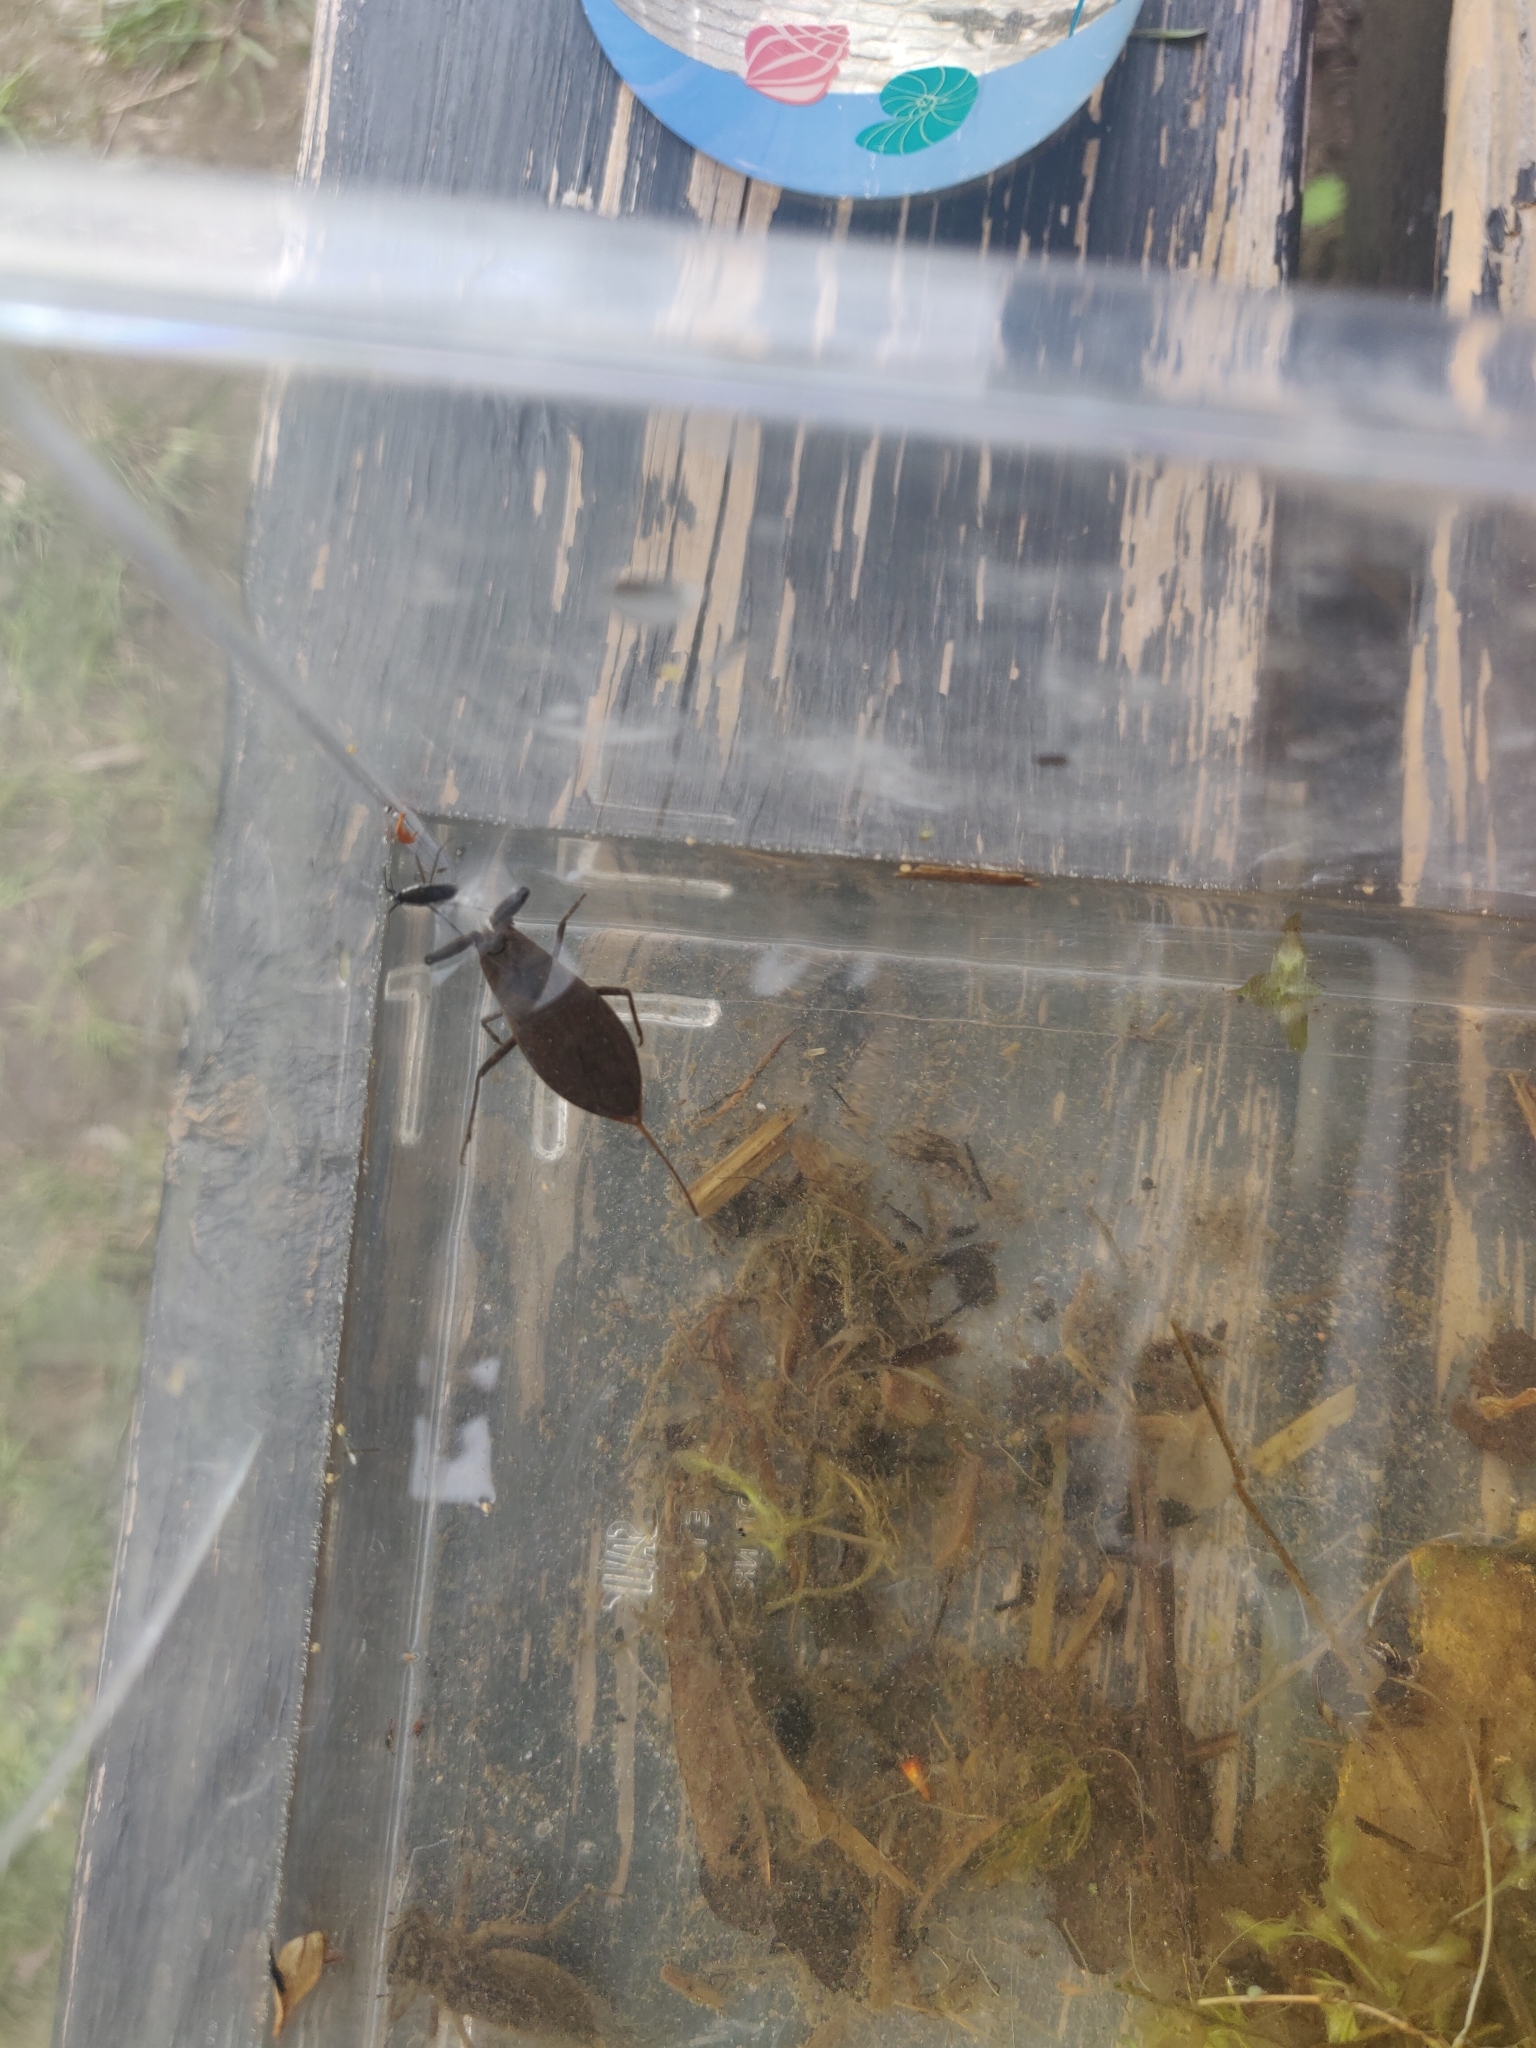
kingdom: Animalia
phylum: Arthropoda
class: Insecta
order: Hemiptera
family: Nepidae
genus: Nepa
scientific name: Nepa cinerea
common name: Water scorpion
